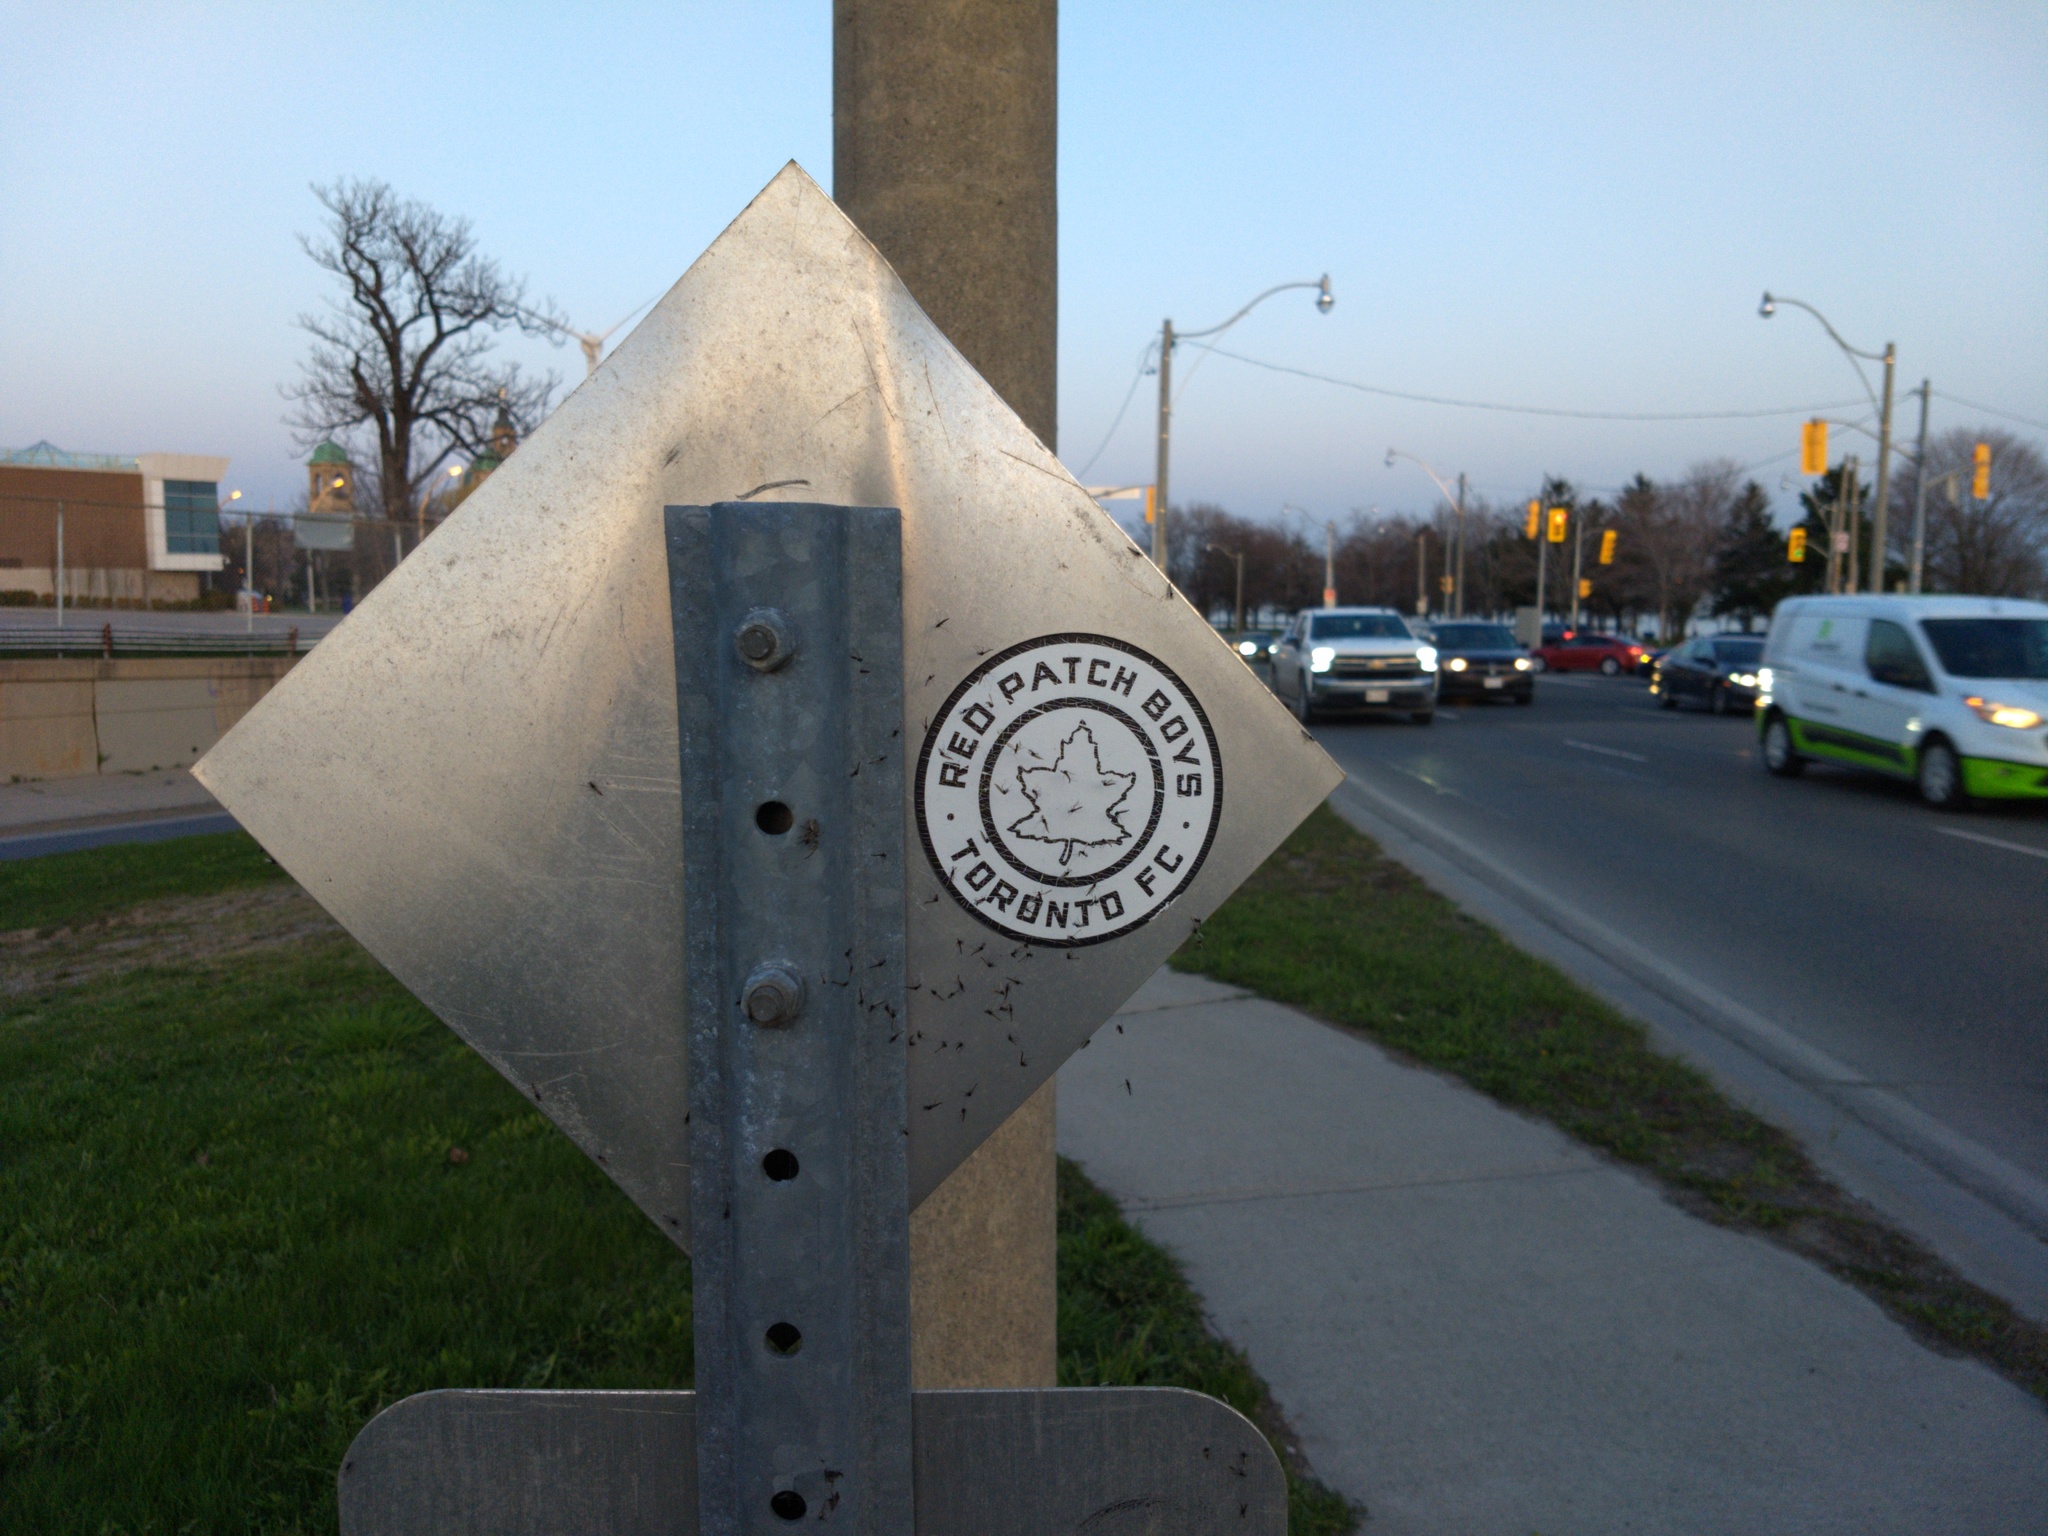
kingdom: Animalia
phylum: Arthropoda
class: Arachnida
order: Araneae
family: Araneidae
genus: Larinioides
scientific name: Larinioides sclopetarius
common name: Bridge orbweaver
